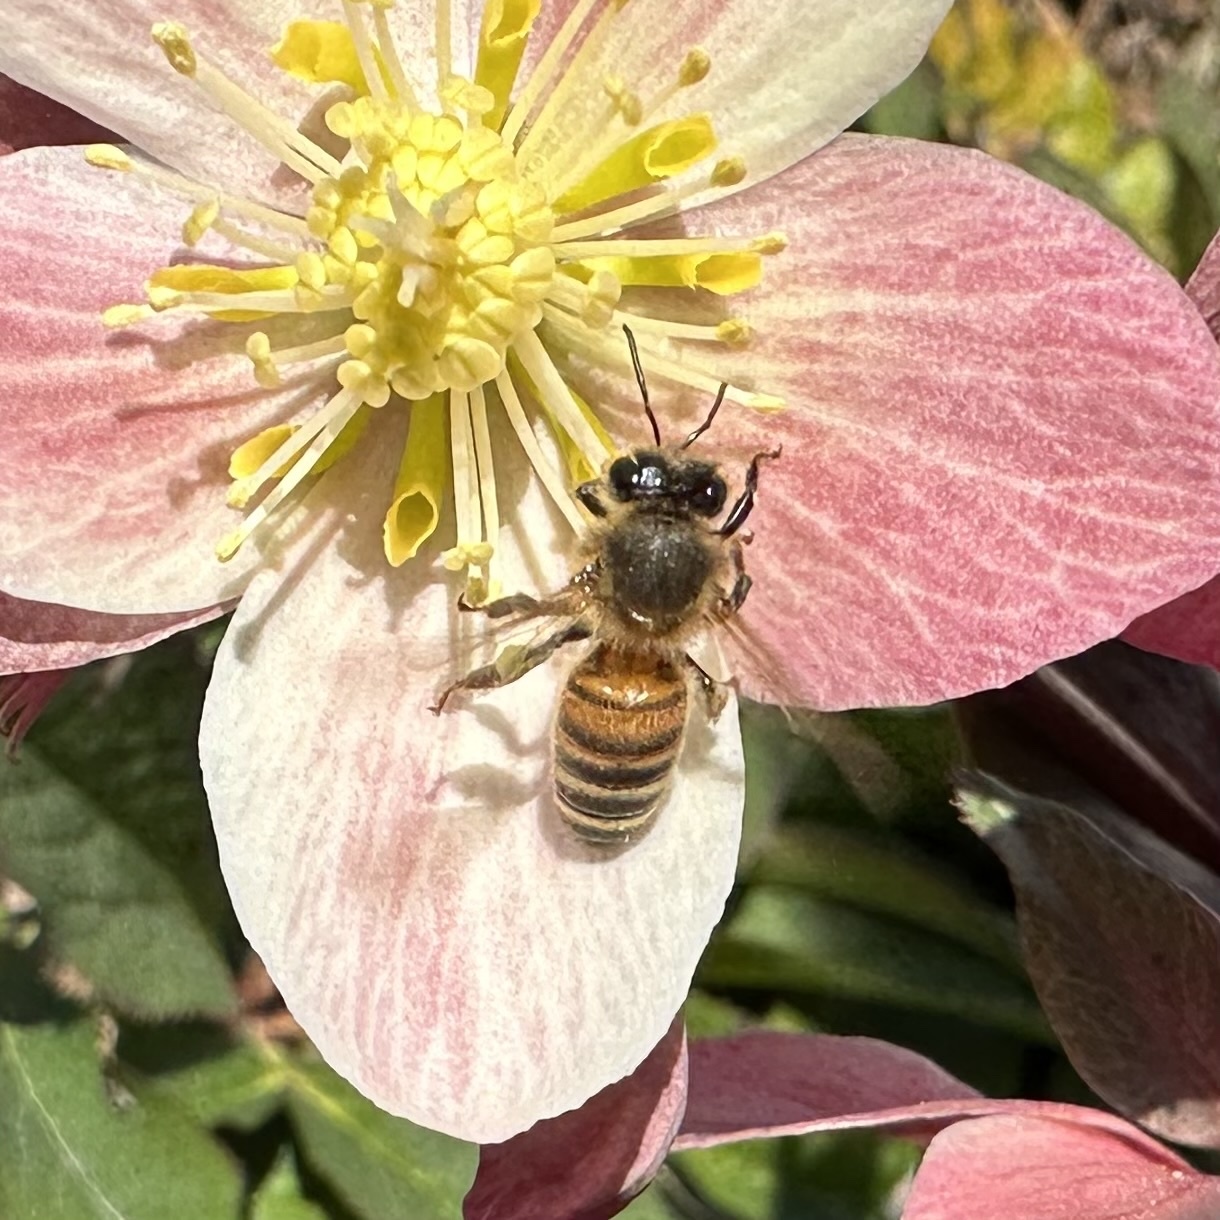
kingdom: Animalia
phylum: Arthropoda
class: Insecta
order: Hymenoptera
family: Apidae
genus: Apis
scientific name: Apis mellifera
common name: Honey bee
